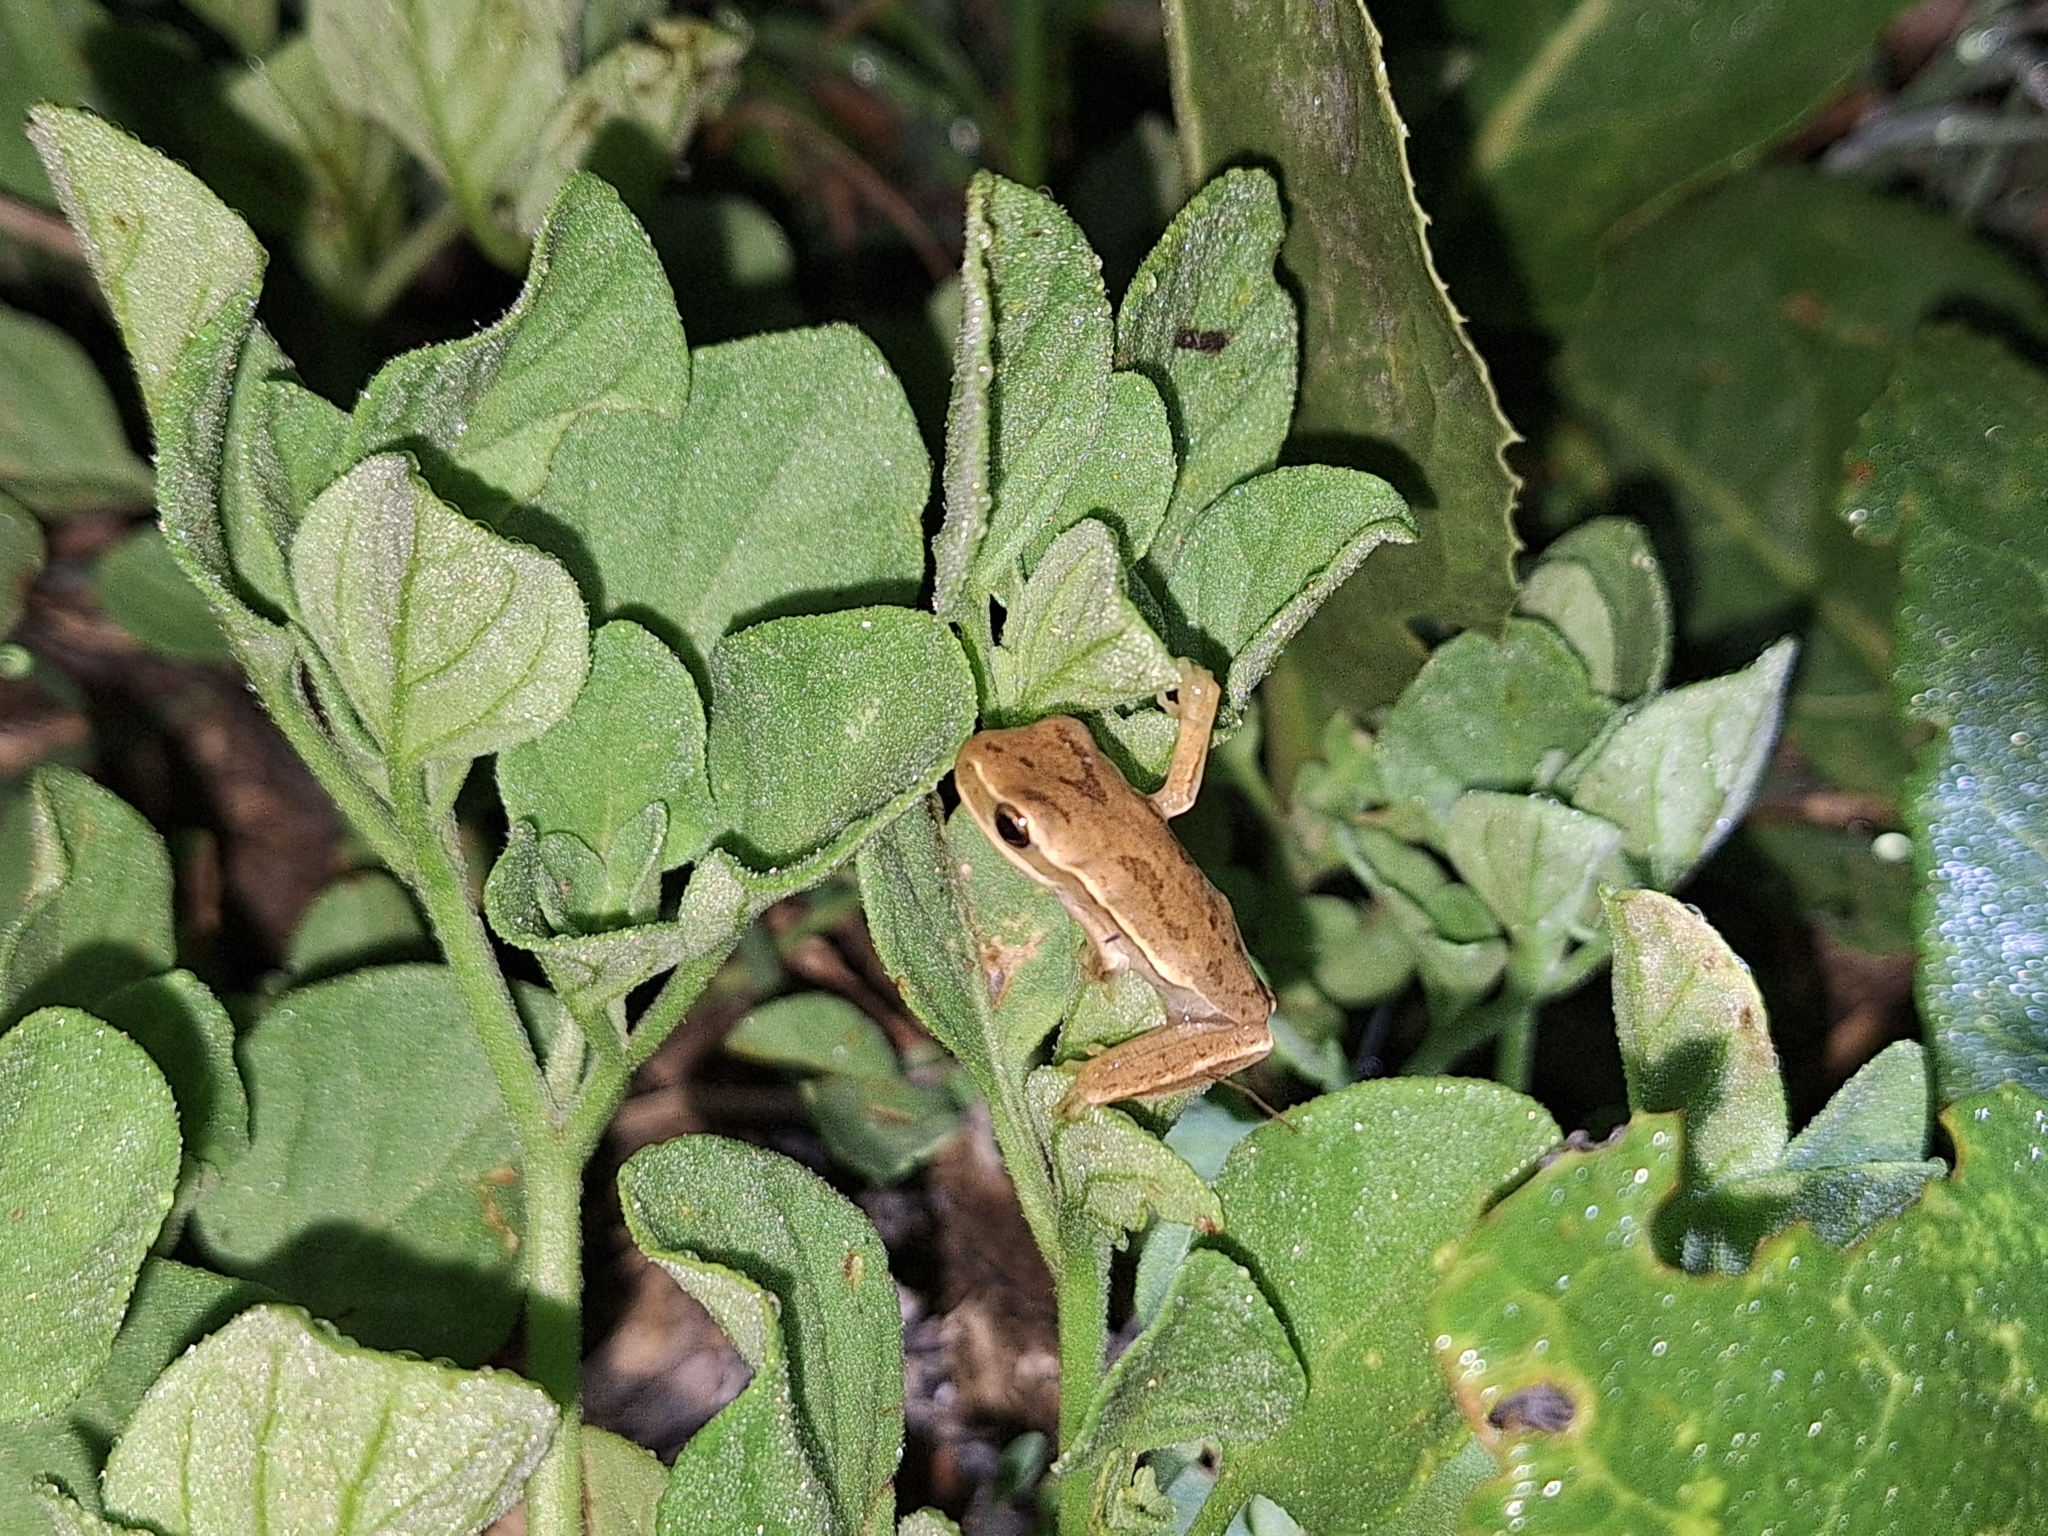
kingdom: Animalia
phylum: Chordata
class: Amphibia
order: Anura
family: Hylidae
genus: Boana
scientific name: Boana pulchella
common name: Montevideo treefrog
